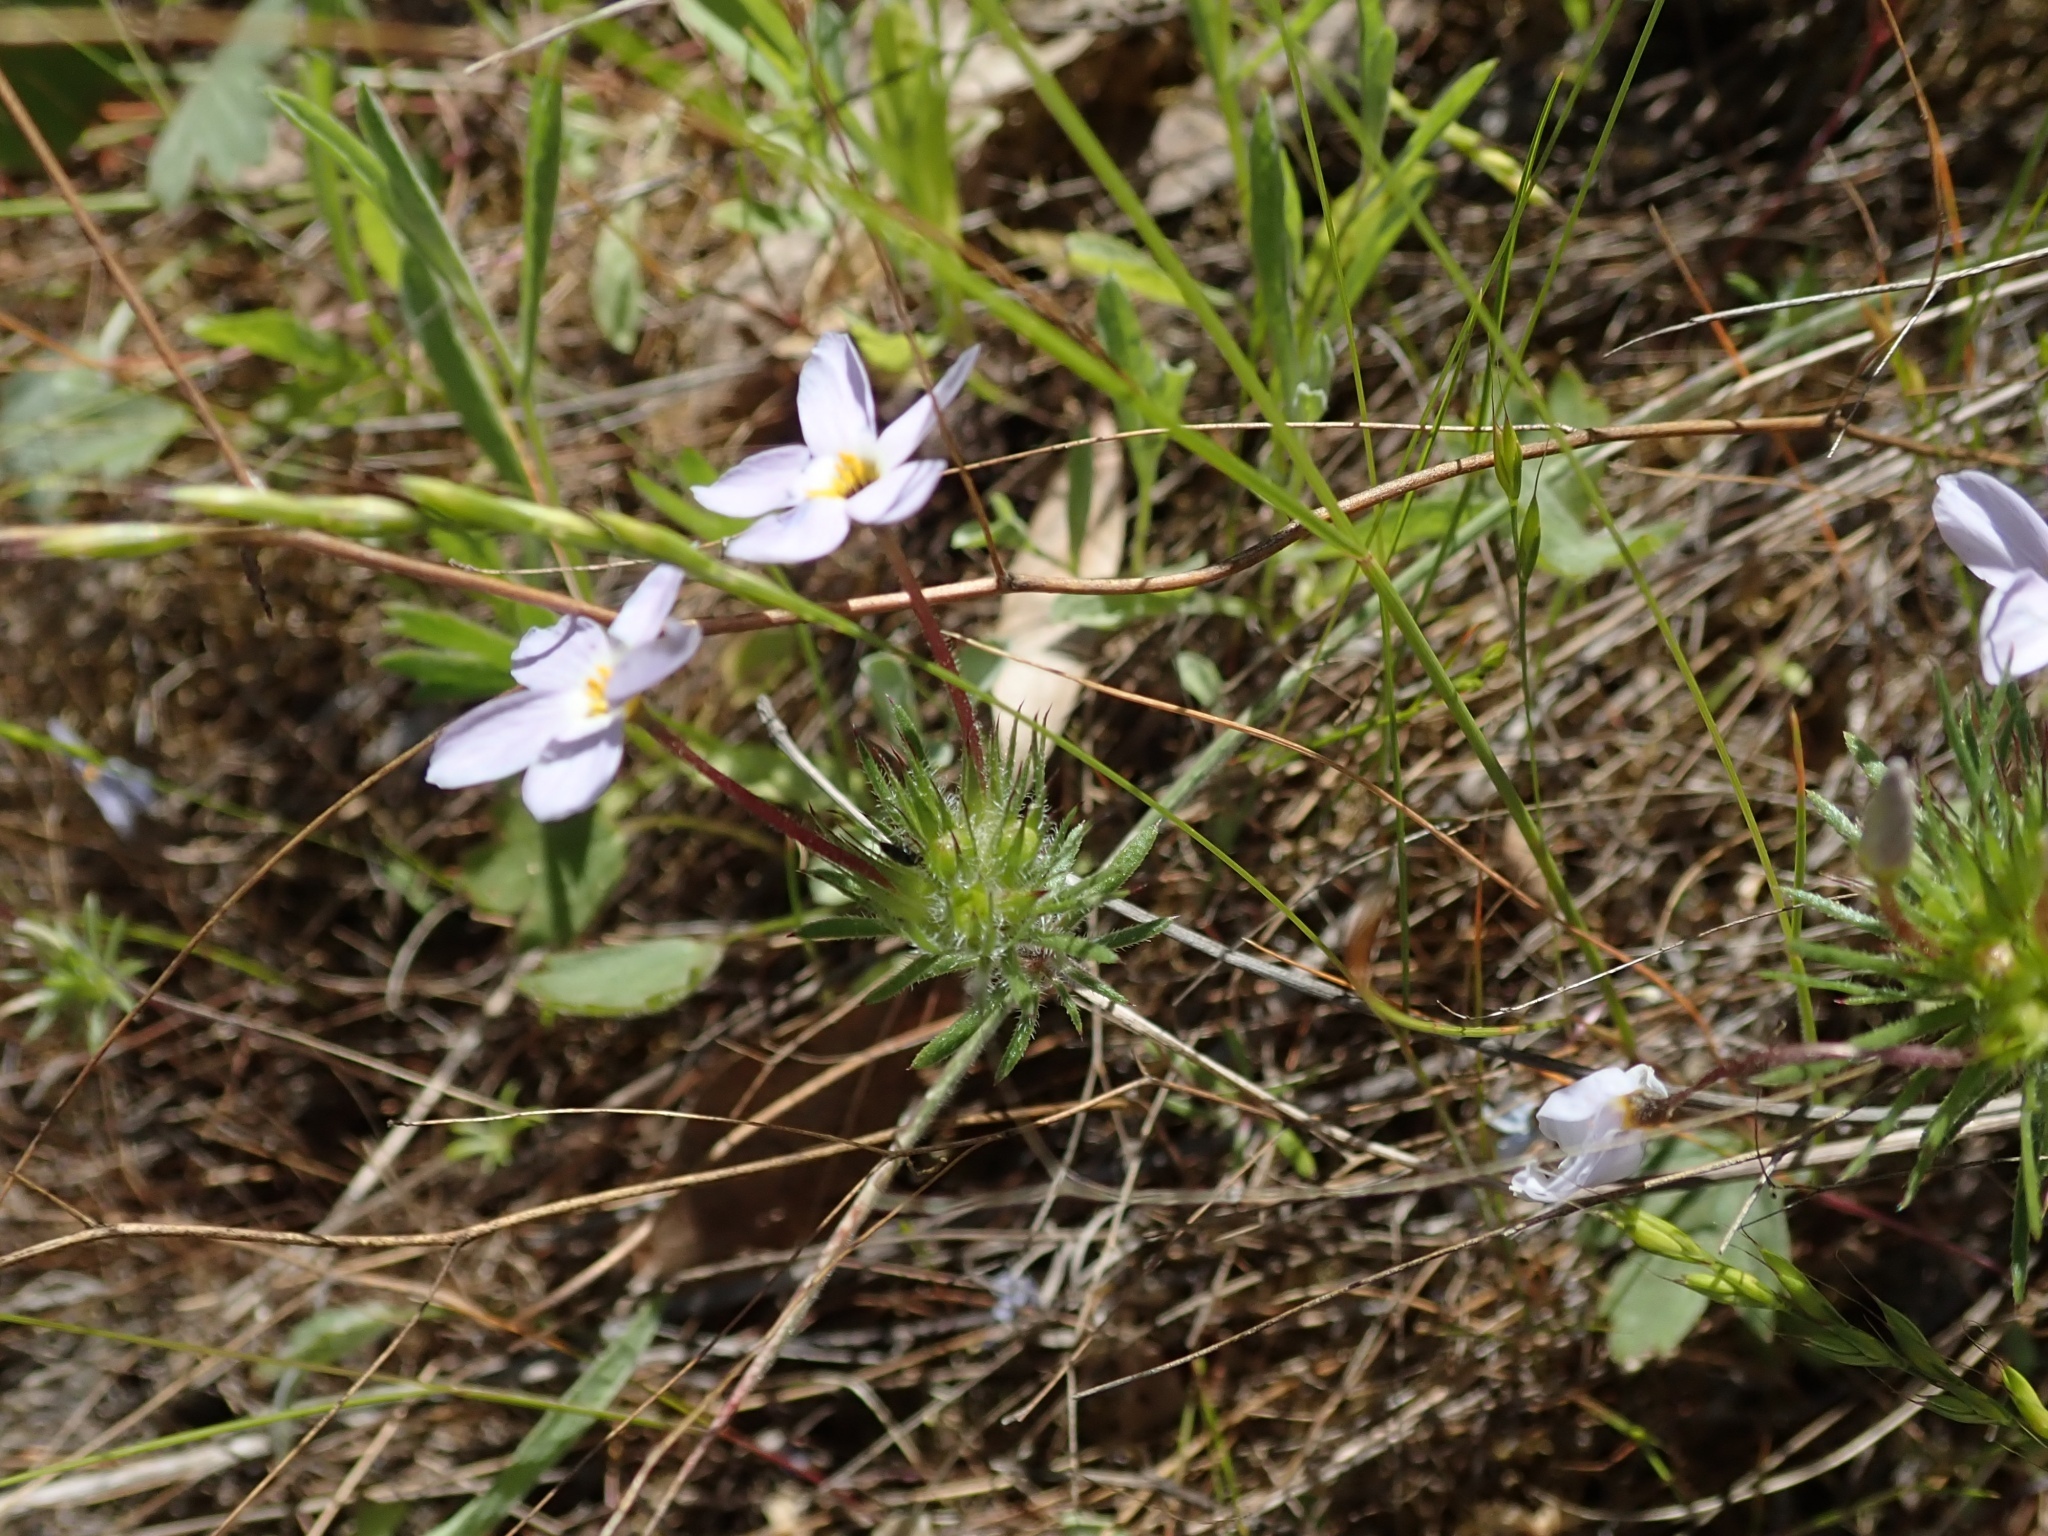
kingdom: Plantae
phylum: Tracheophyta
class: Magnoliopsida
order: Ericales
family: Polemoniaceae
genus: Leptosiphon
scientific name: Leptosiphon androsaceus
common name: False babystars
